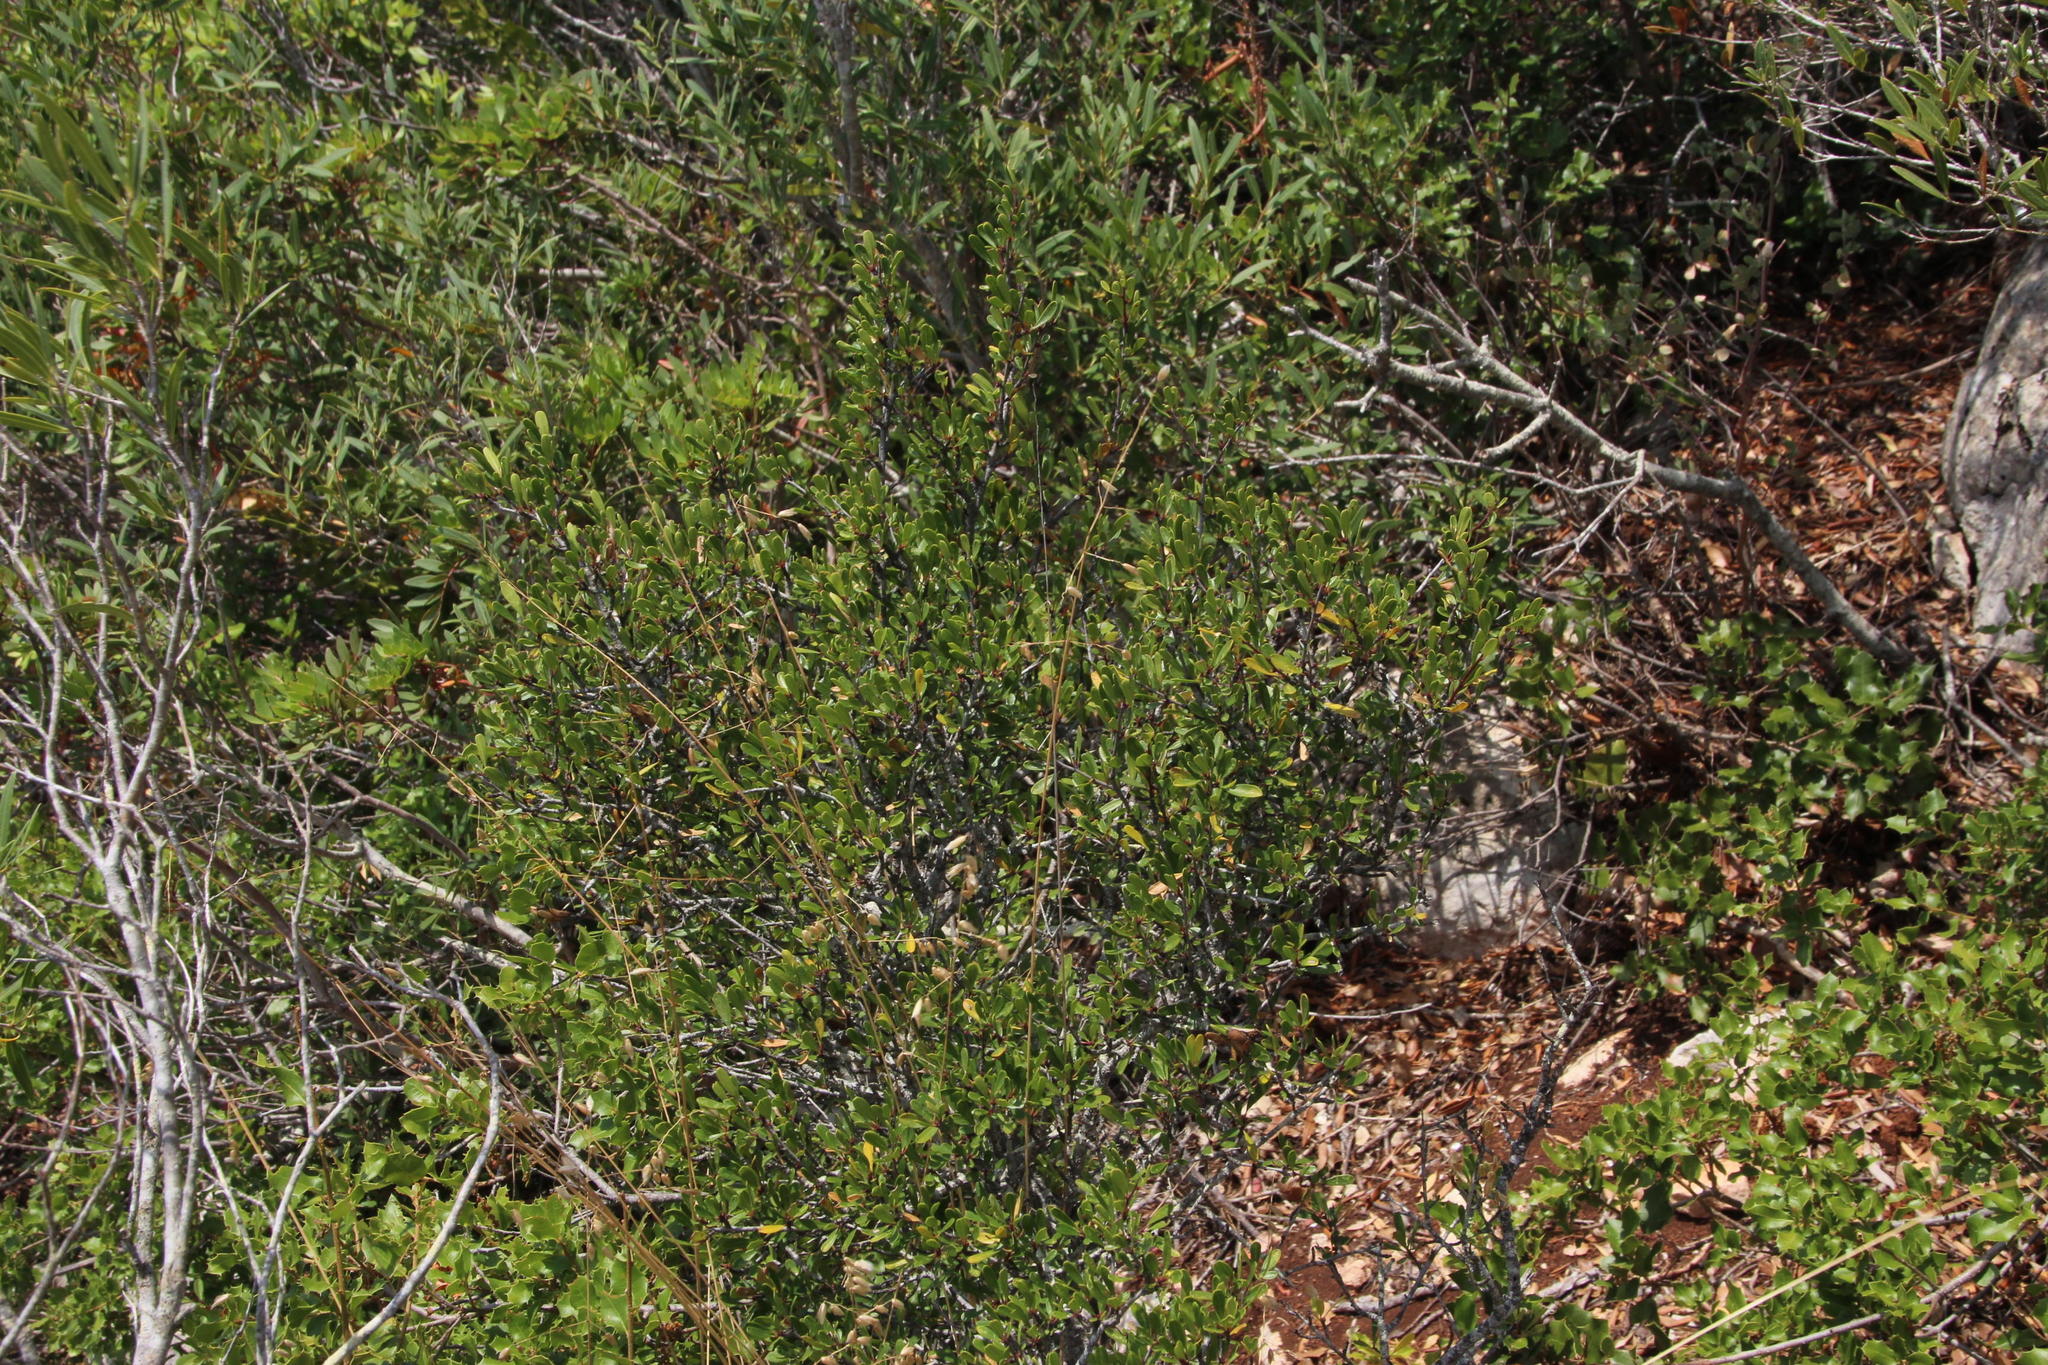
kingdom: Plantae
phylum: Tracheophyta
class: Magnoliopsida
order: Rosales
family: Rhamnaceae
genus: Rhamnus
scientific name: Rhamnus oleoides
